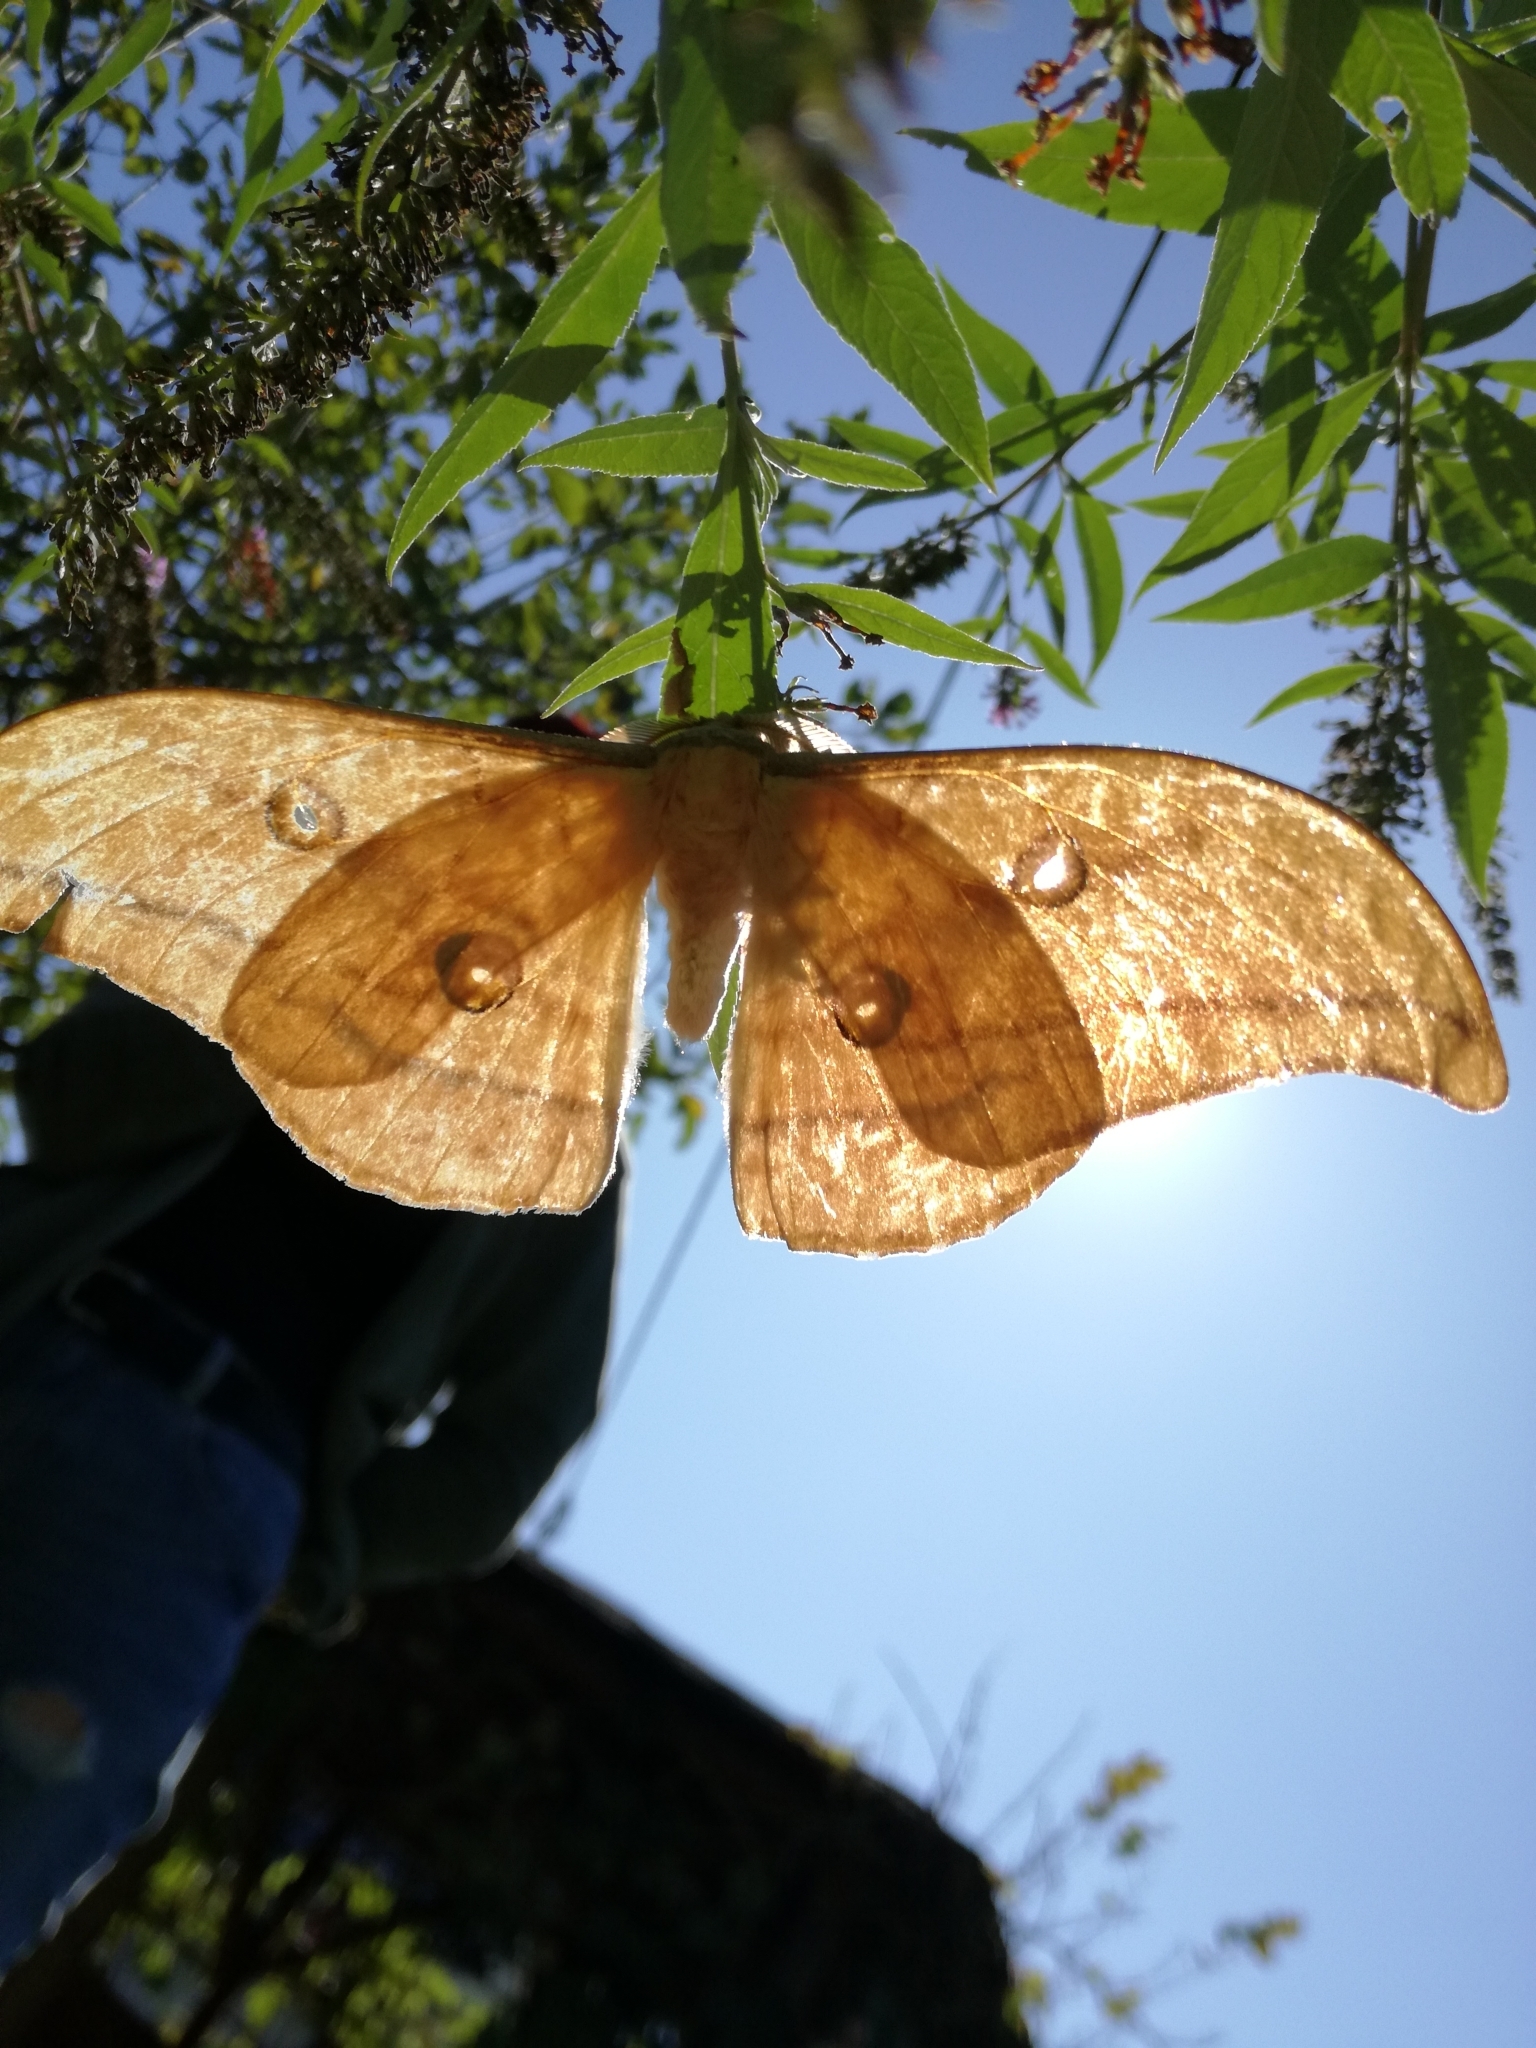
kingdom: Animalia
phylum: Arthropoda
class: Insecta
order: Lepidoptera
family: Saturniidae
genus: Antheraea
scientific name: Antheraea yamamai
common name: Japanese oak silk moth
